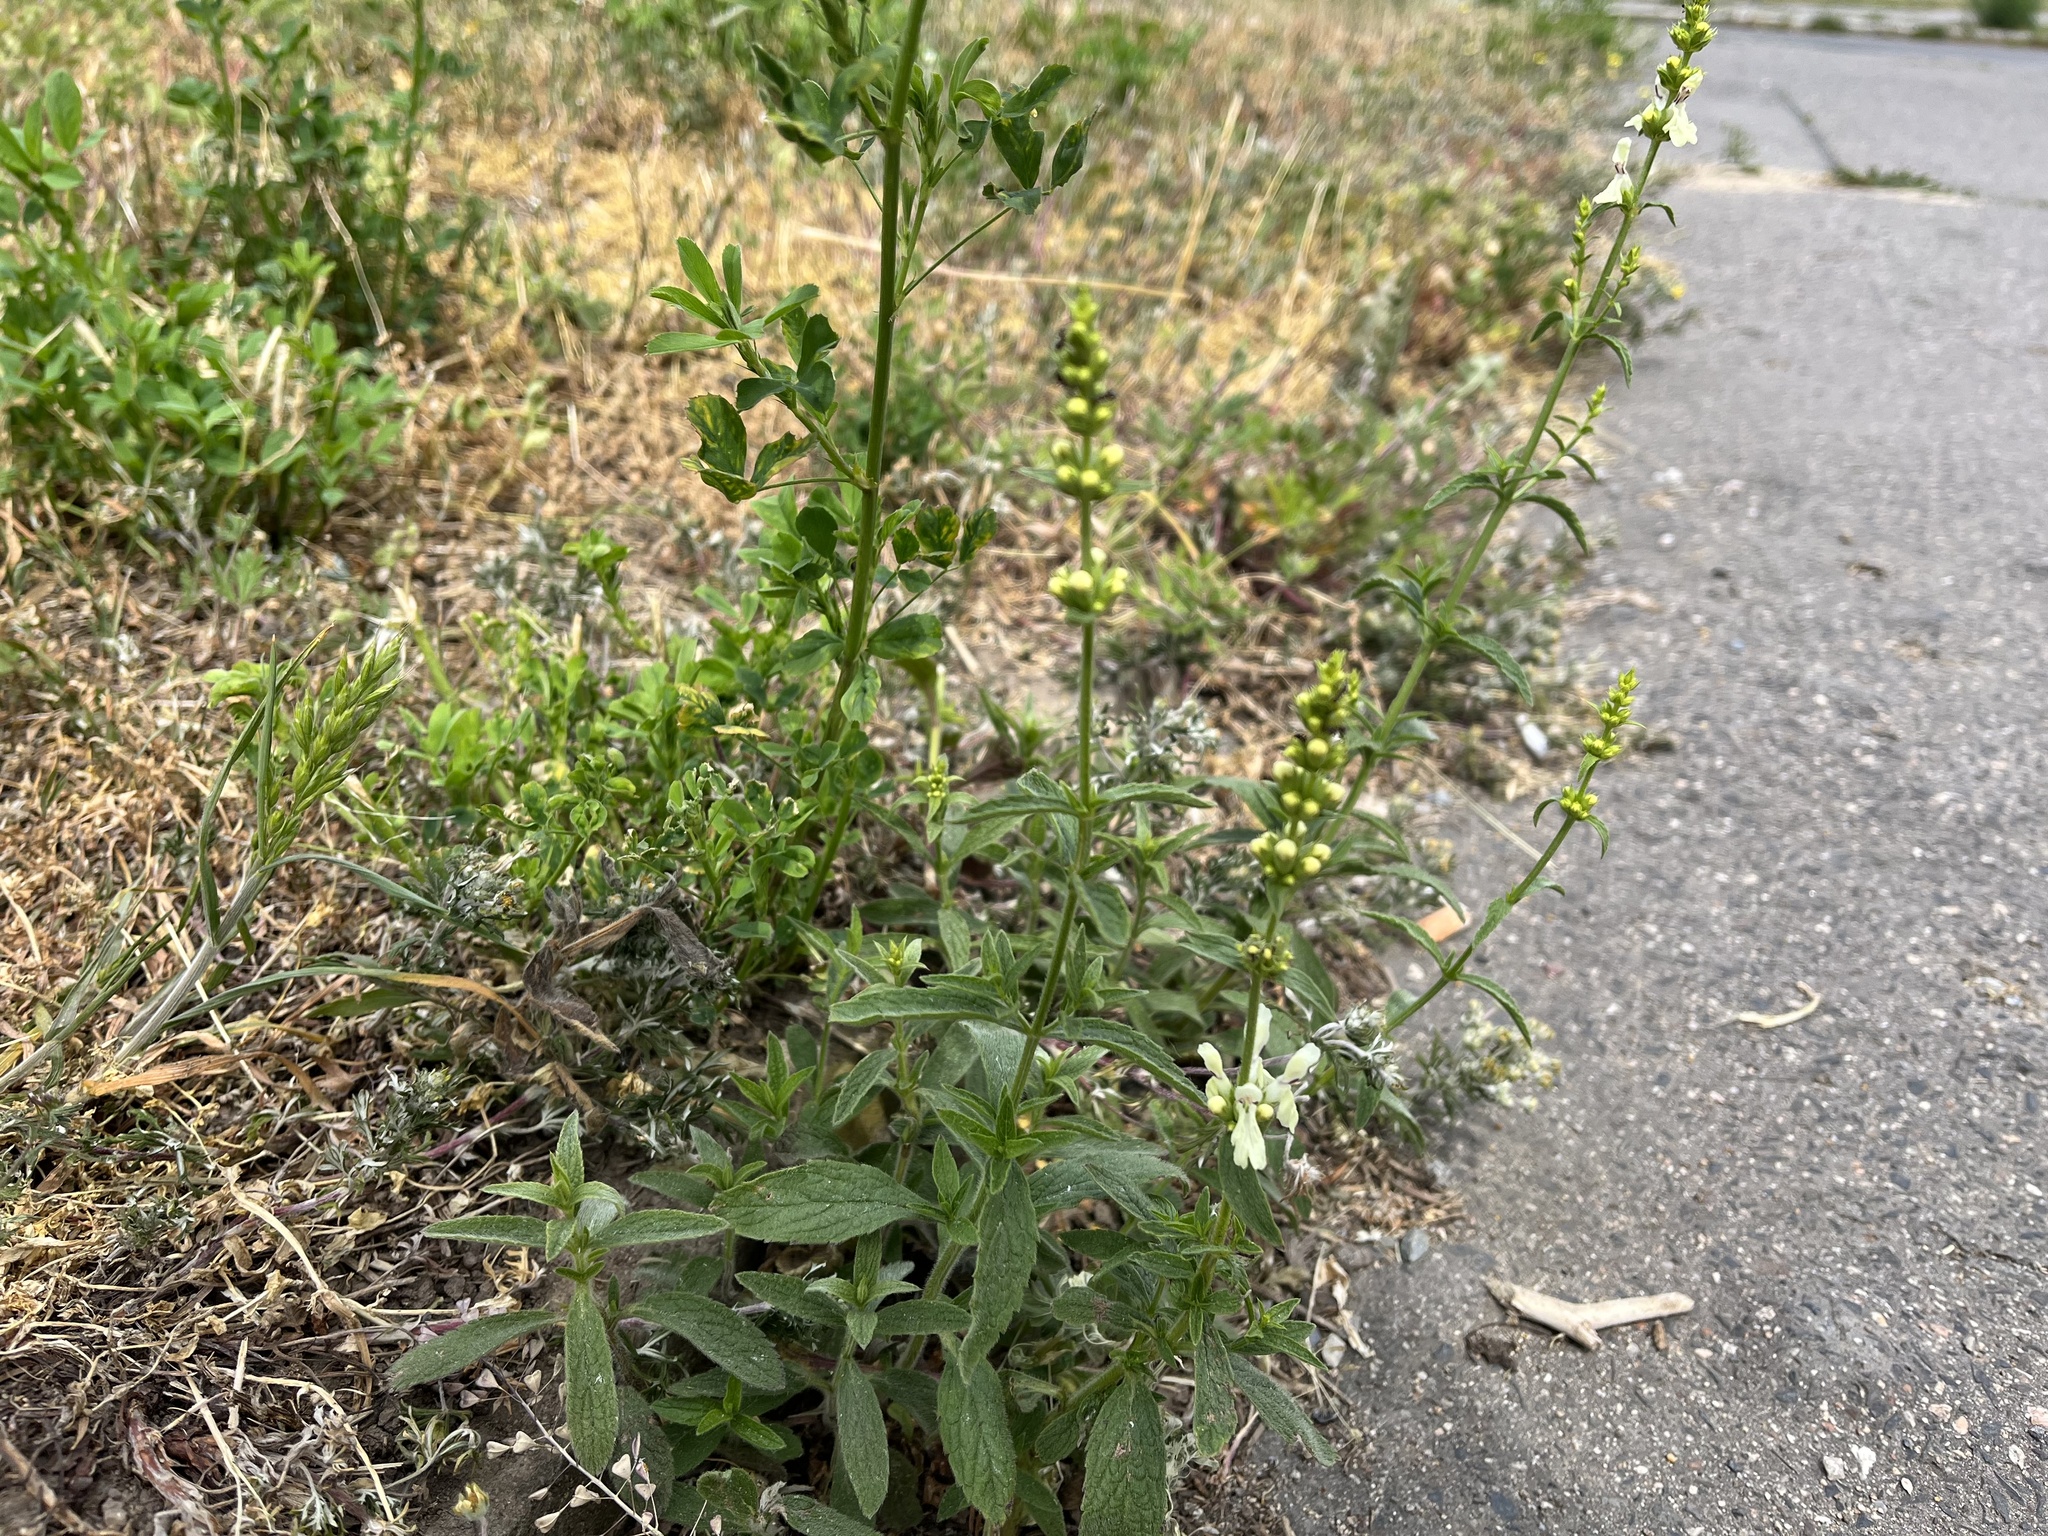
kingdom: Plantae
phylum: Tracheophyta
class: Magnoliopsida
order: Lamiales
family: Lamiaceae
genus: Stachys
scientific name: Stachys recta
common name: Perennial yellow-woundwort
